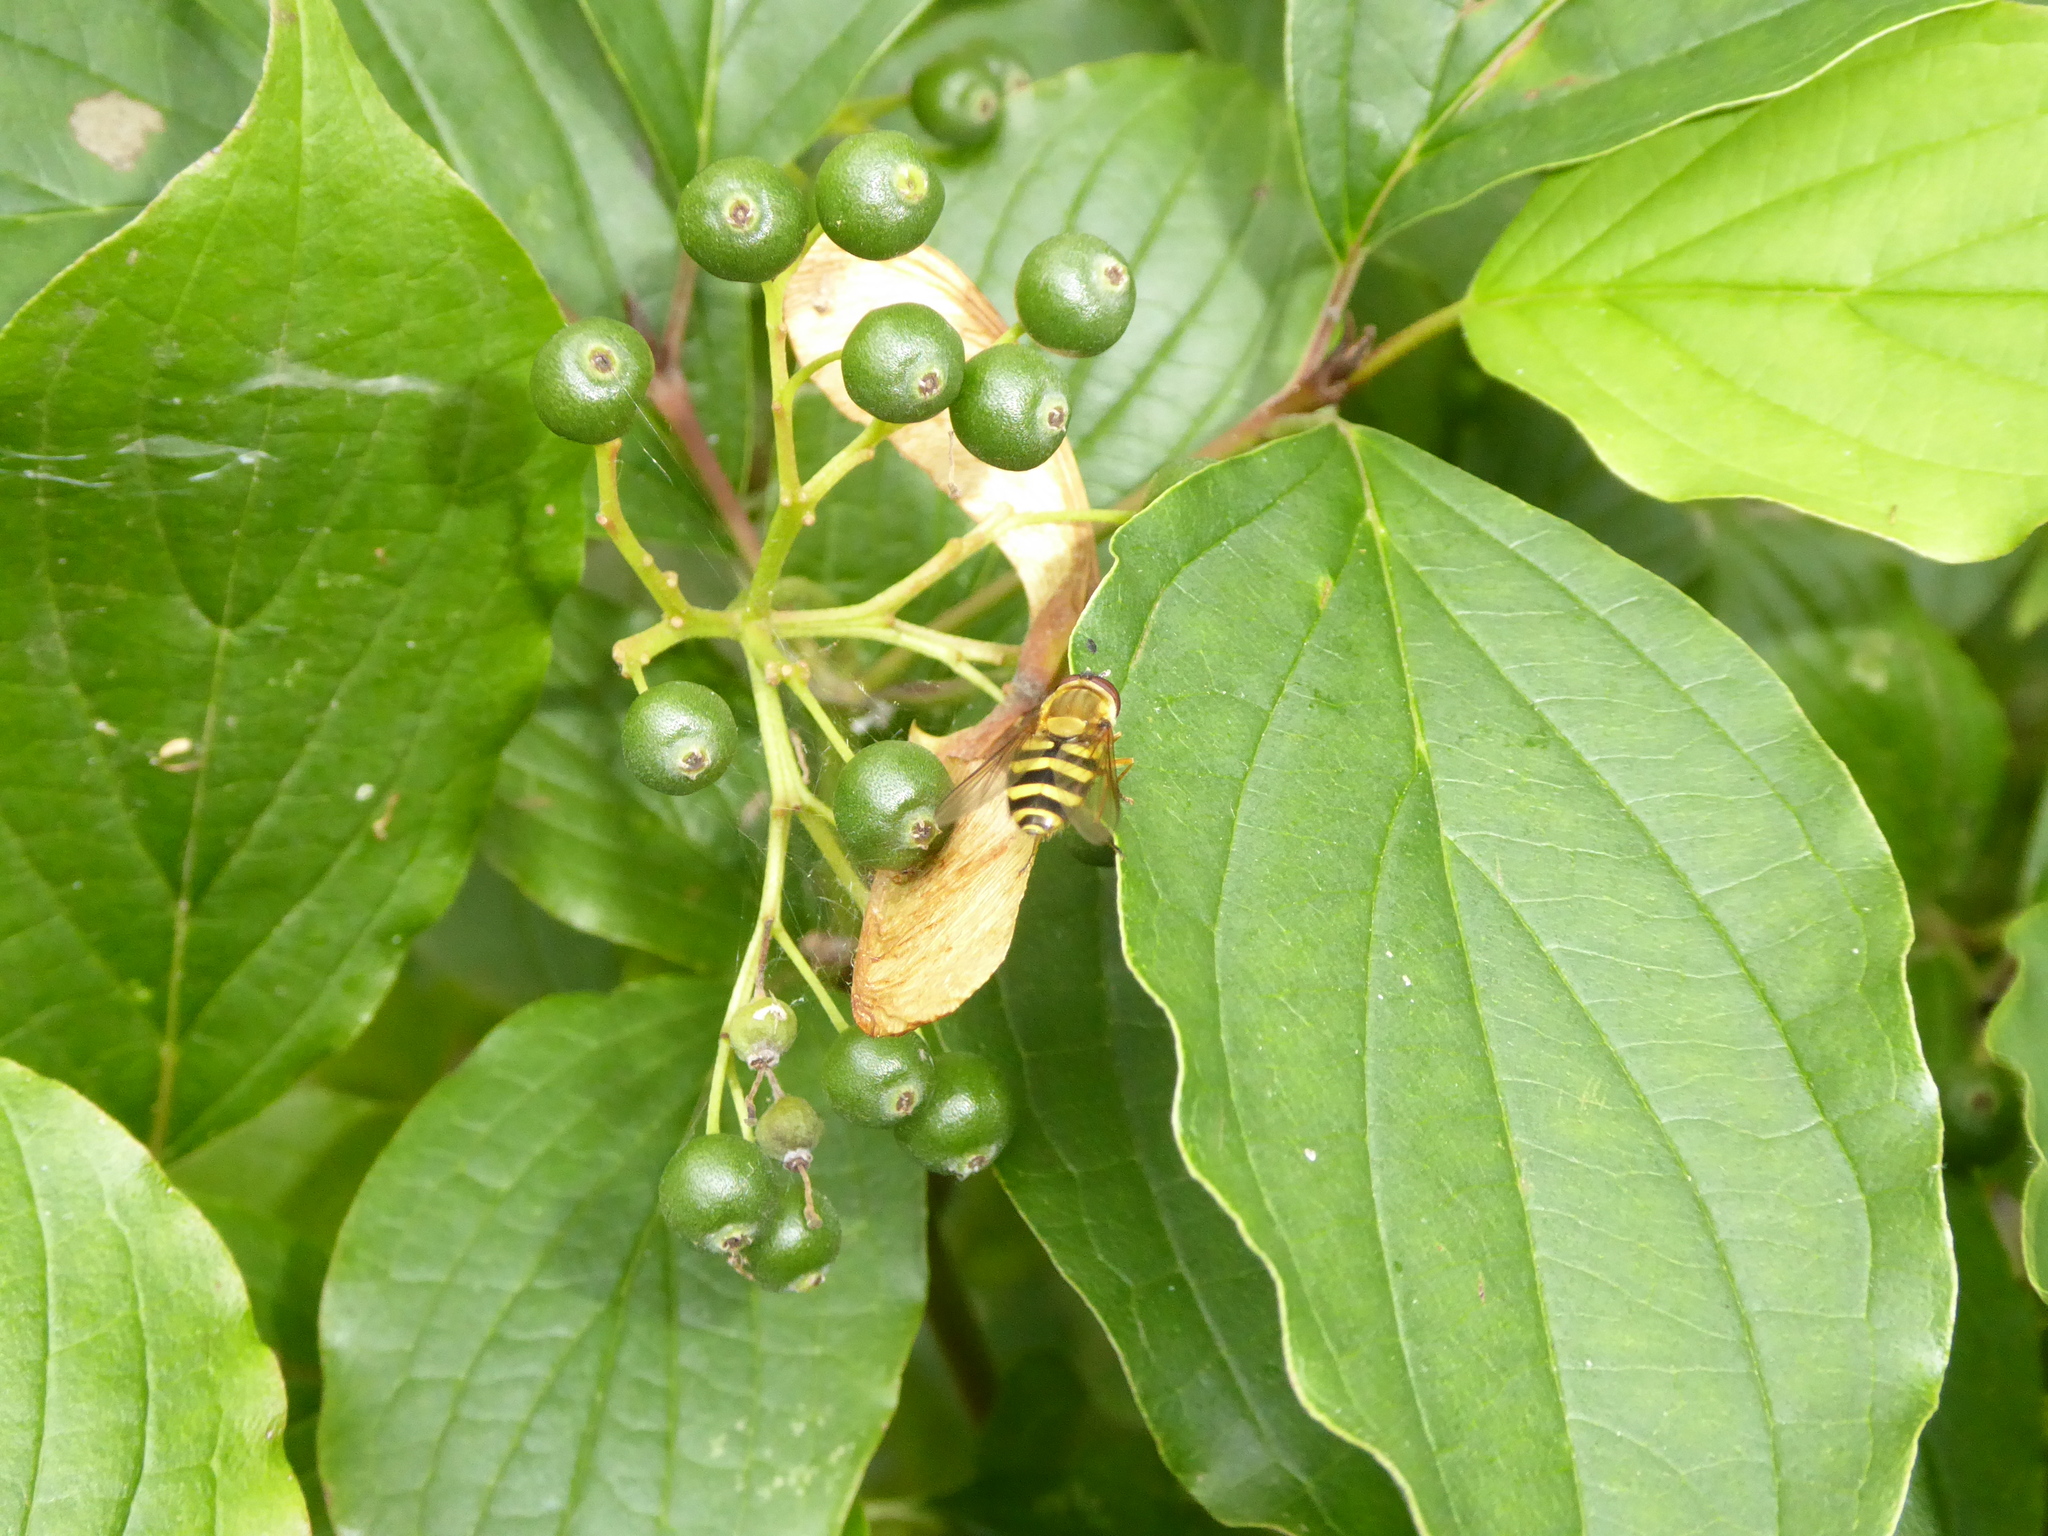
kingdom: Plantae
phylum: Tracheophyta
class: Magnoliopsida
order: Cornales
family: Cornaceae
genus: Cornus
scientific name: Cornus sanguinea
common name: Dogwood
